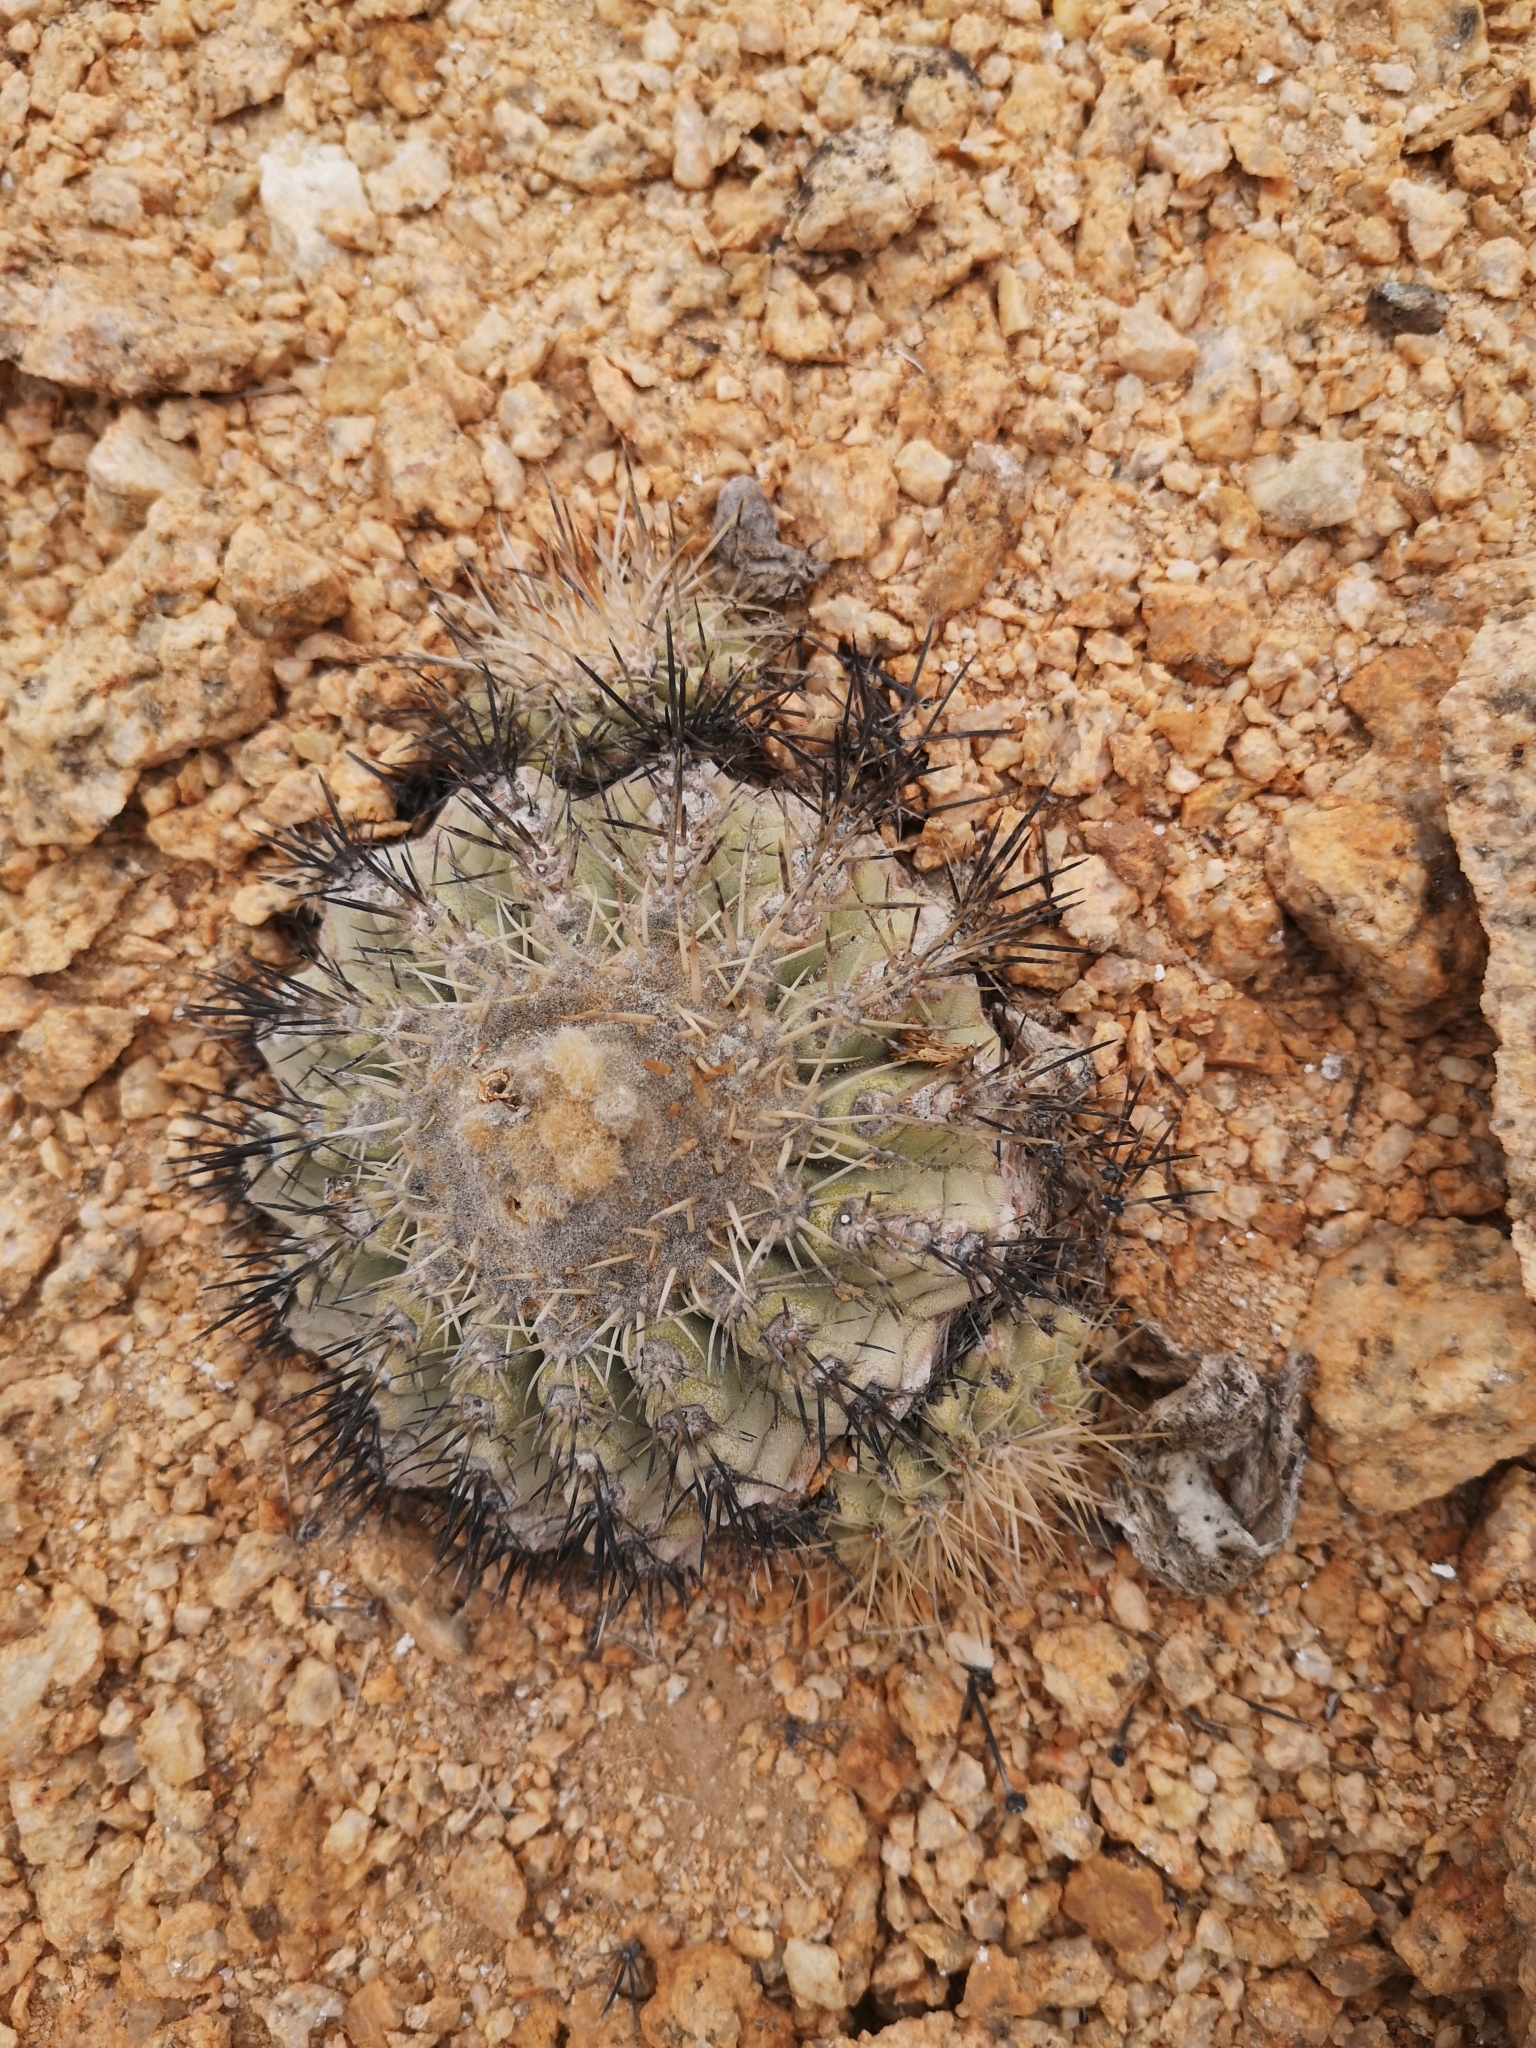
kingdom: Plantae
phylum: Tracheophyta
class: Magnoliopsida
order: Caryophyllales
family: Cactaceae
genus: Copiapoa
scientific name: Copiapoa cinerascens
